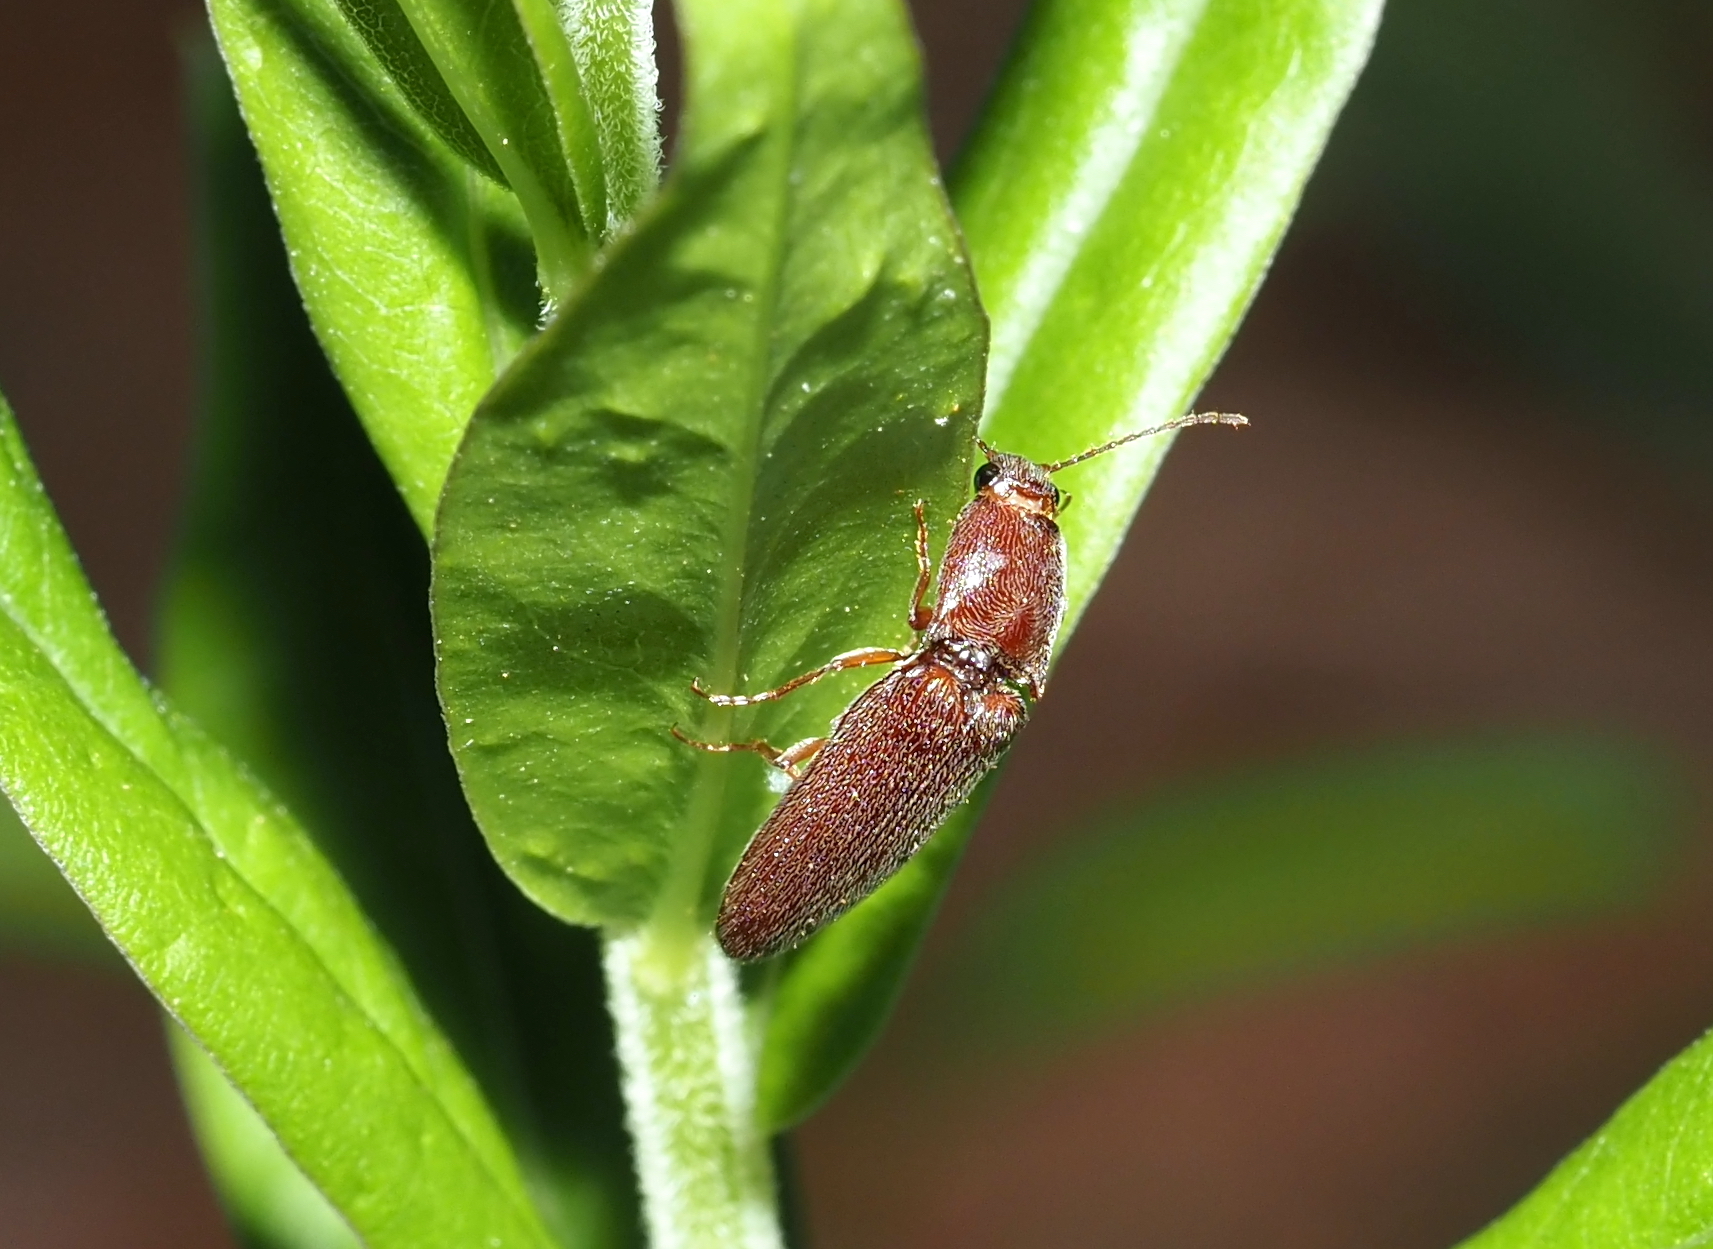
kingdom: Animalia
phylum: Arthropoda
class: Insecta
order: Coleoptera
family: Elateridae
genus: Melanotus
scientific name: Melanotus
